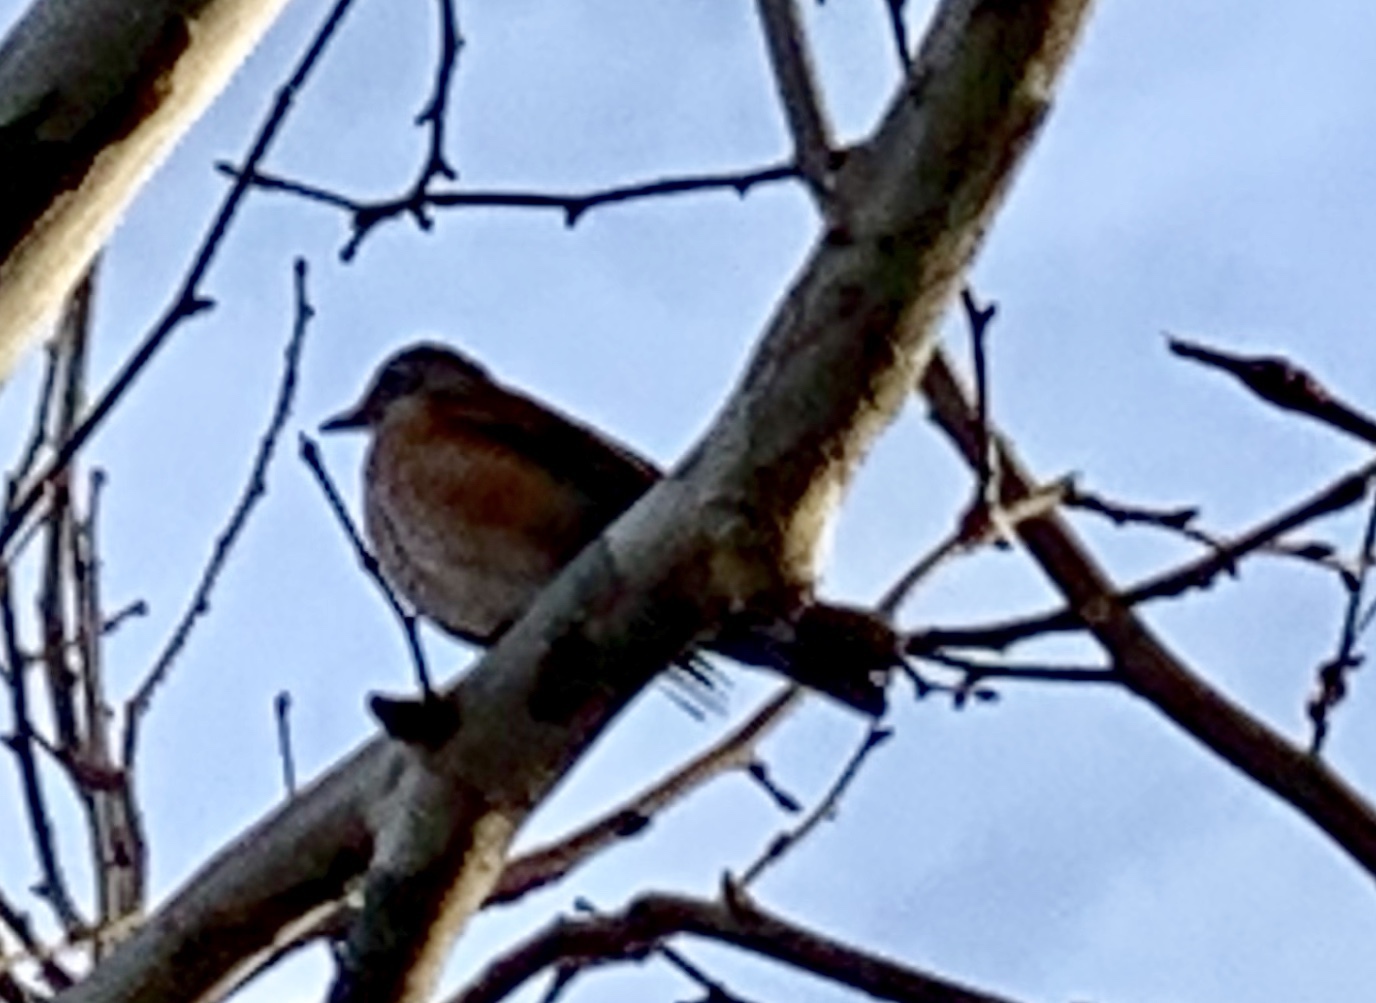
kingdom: Animalia
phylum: Chordata
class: Aves
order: Passeriformes
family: Turdidae
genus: Turdus
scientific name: Turdus migratorius
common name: American robin
